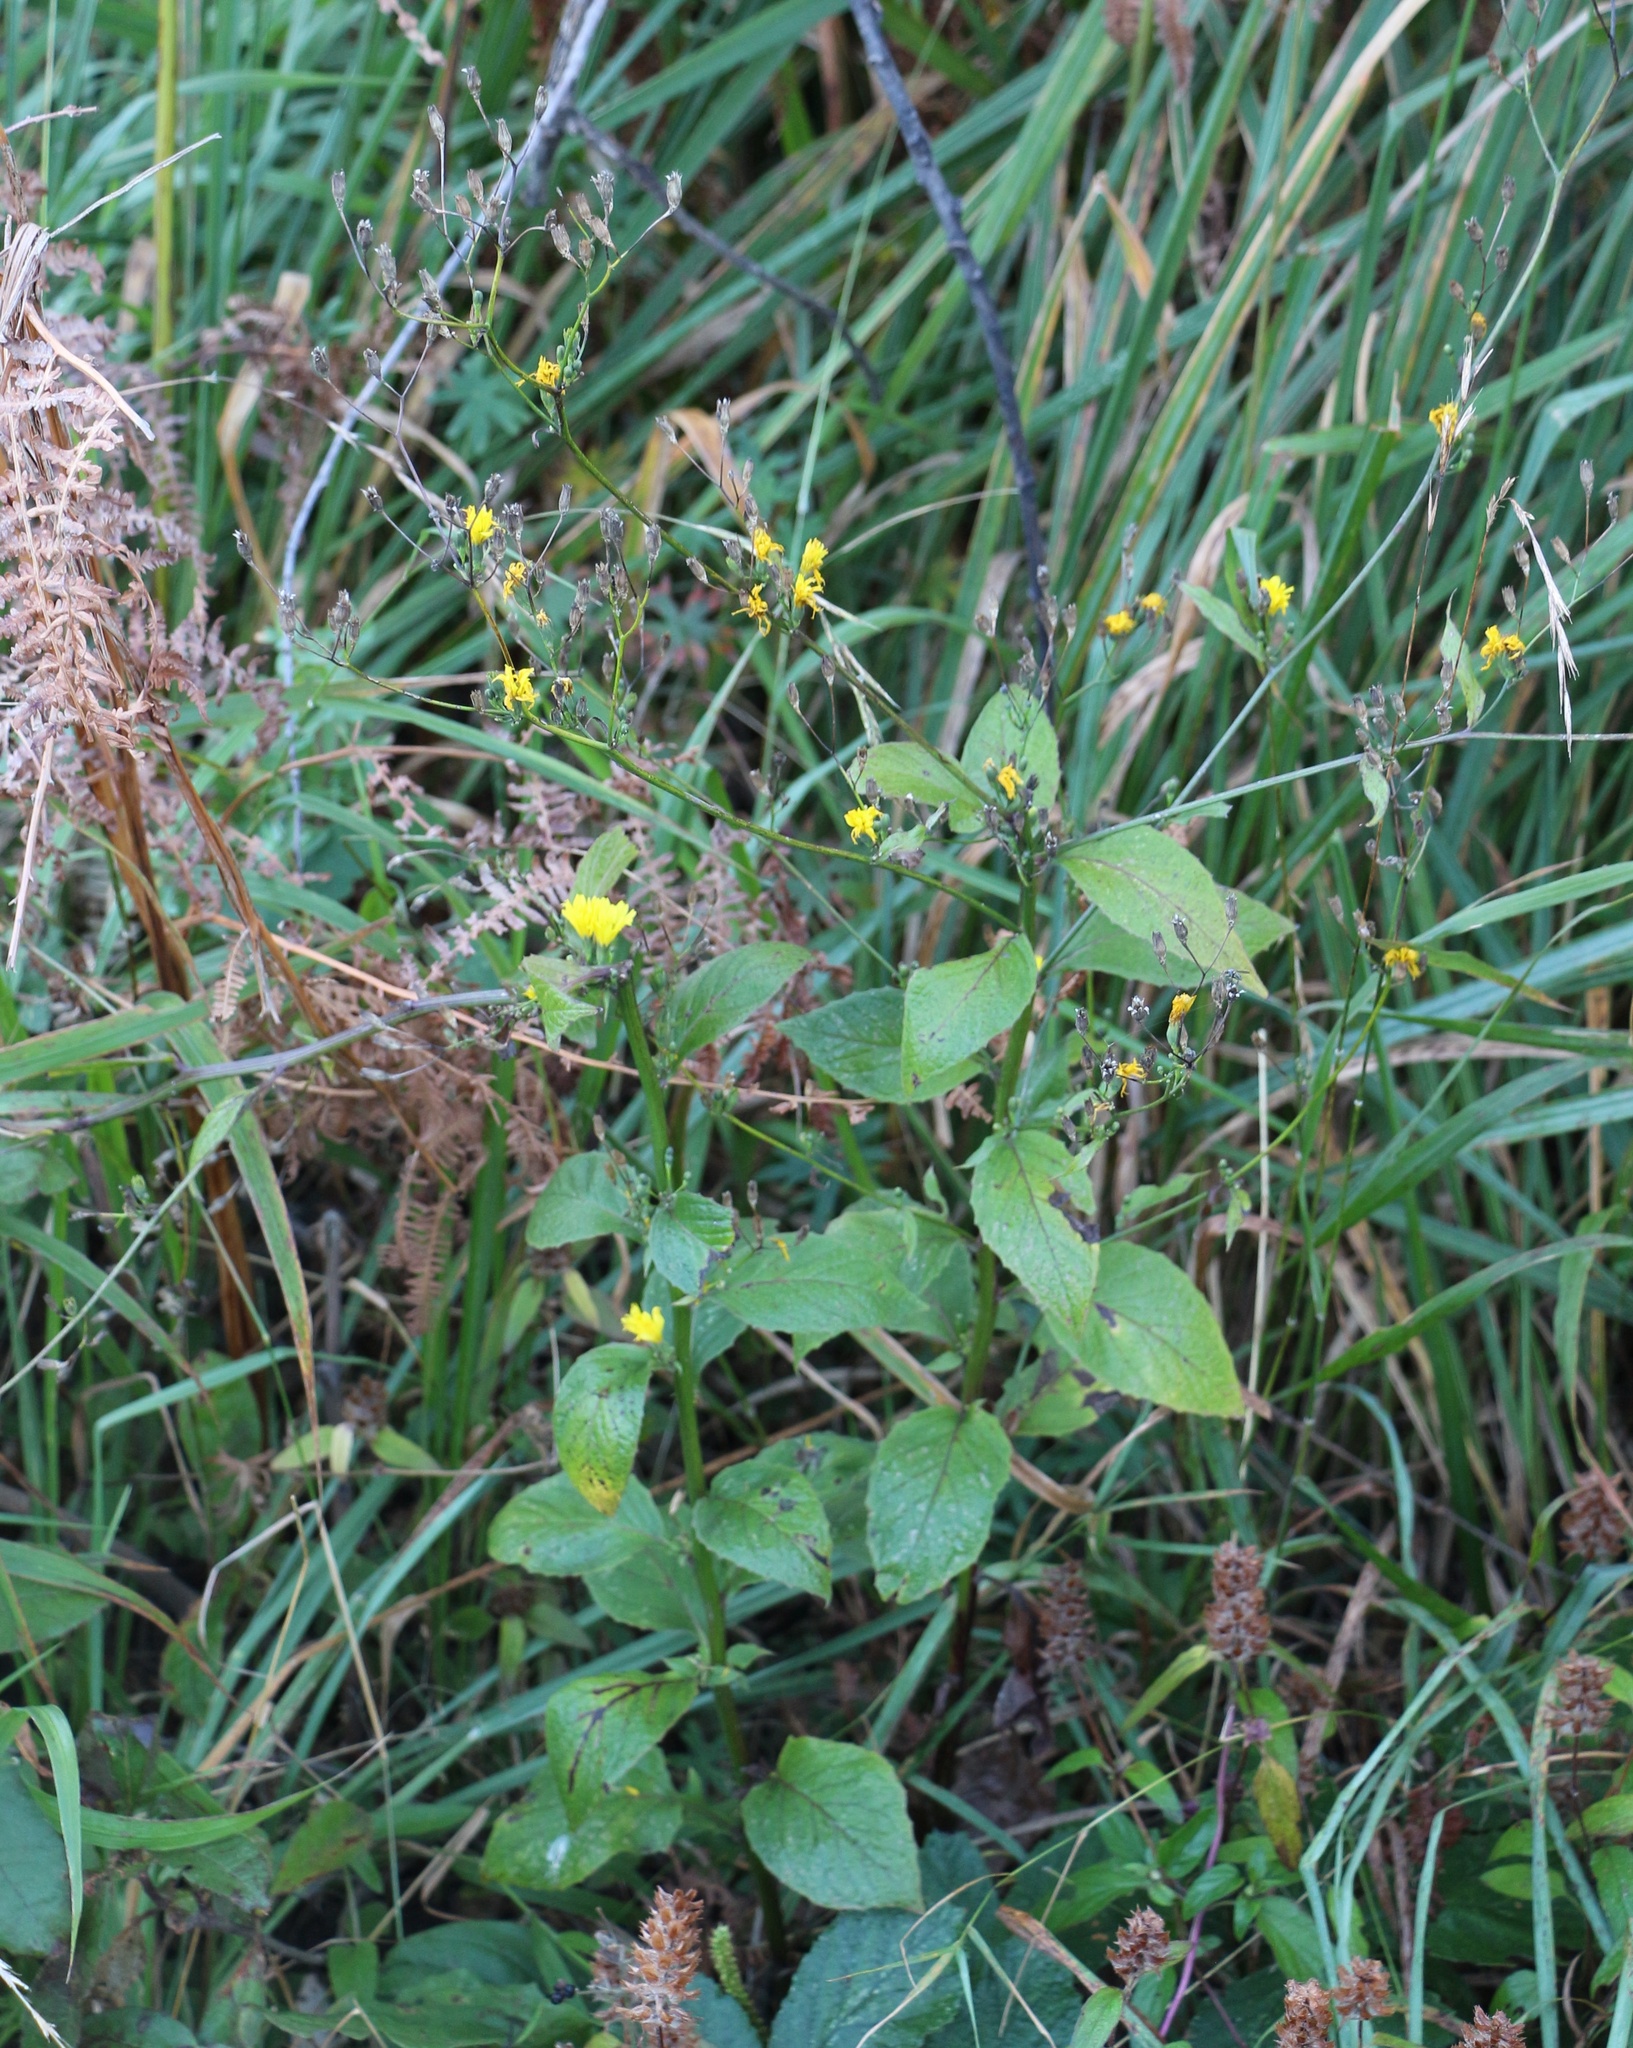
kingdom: Plantae
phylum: Tracheophyta
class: Magnoliopsida
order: Asterales
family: Asteraceae
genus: Lapsana
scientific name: Lapsana communis
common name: Nipplewort
